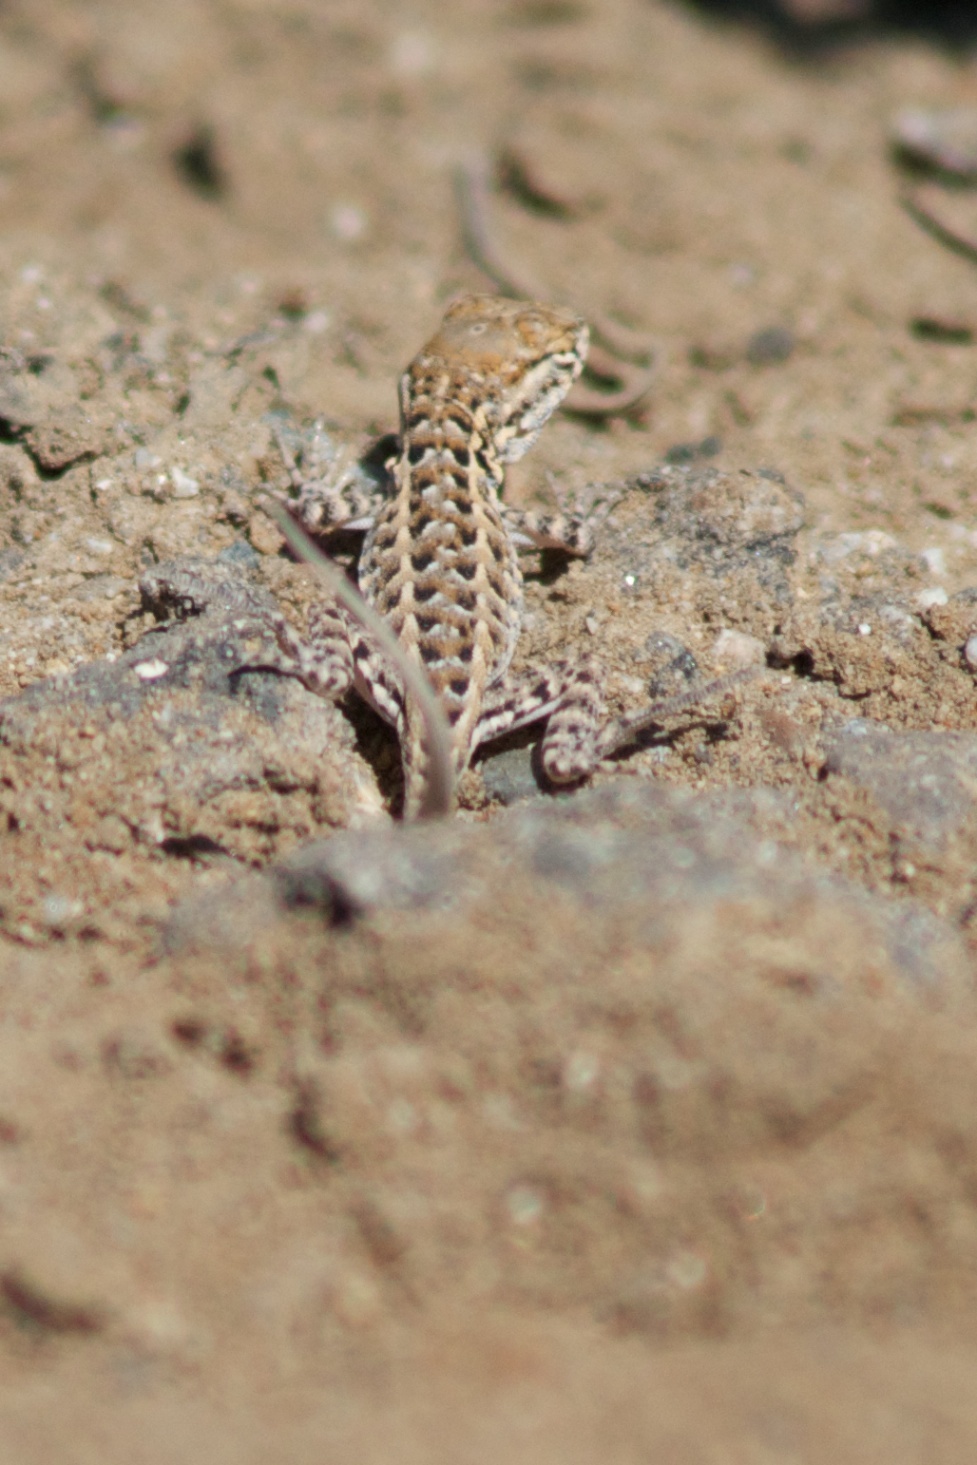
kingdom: Animalia
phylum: Chordata
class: Squamata
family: Phrynosomatidae
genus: Uta
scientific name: Uta stansburiana
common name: Side-blotched lizard
